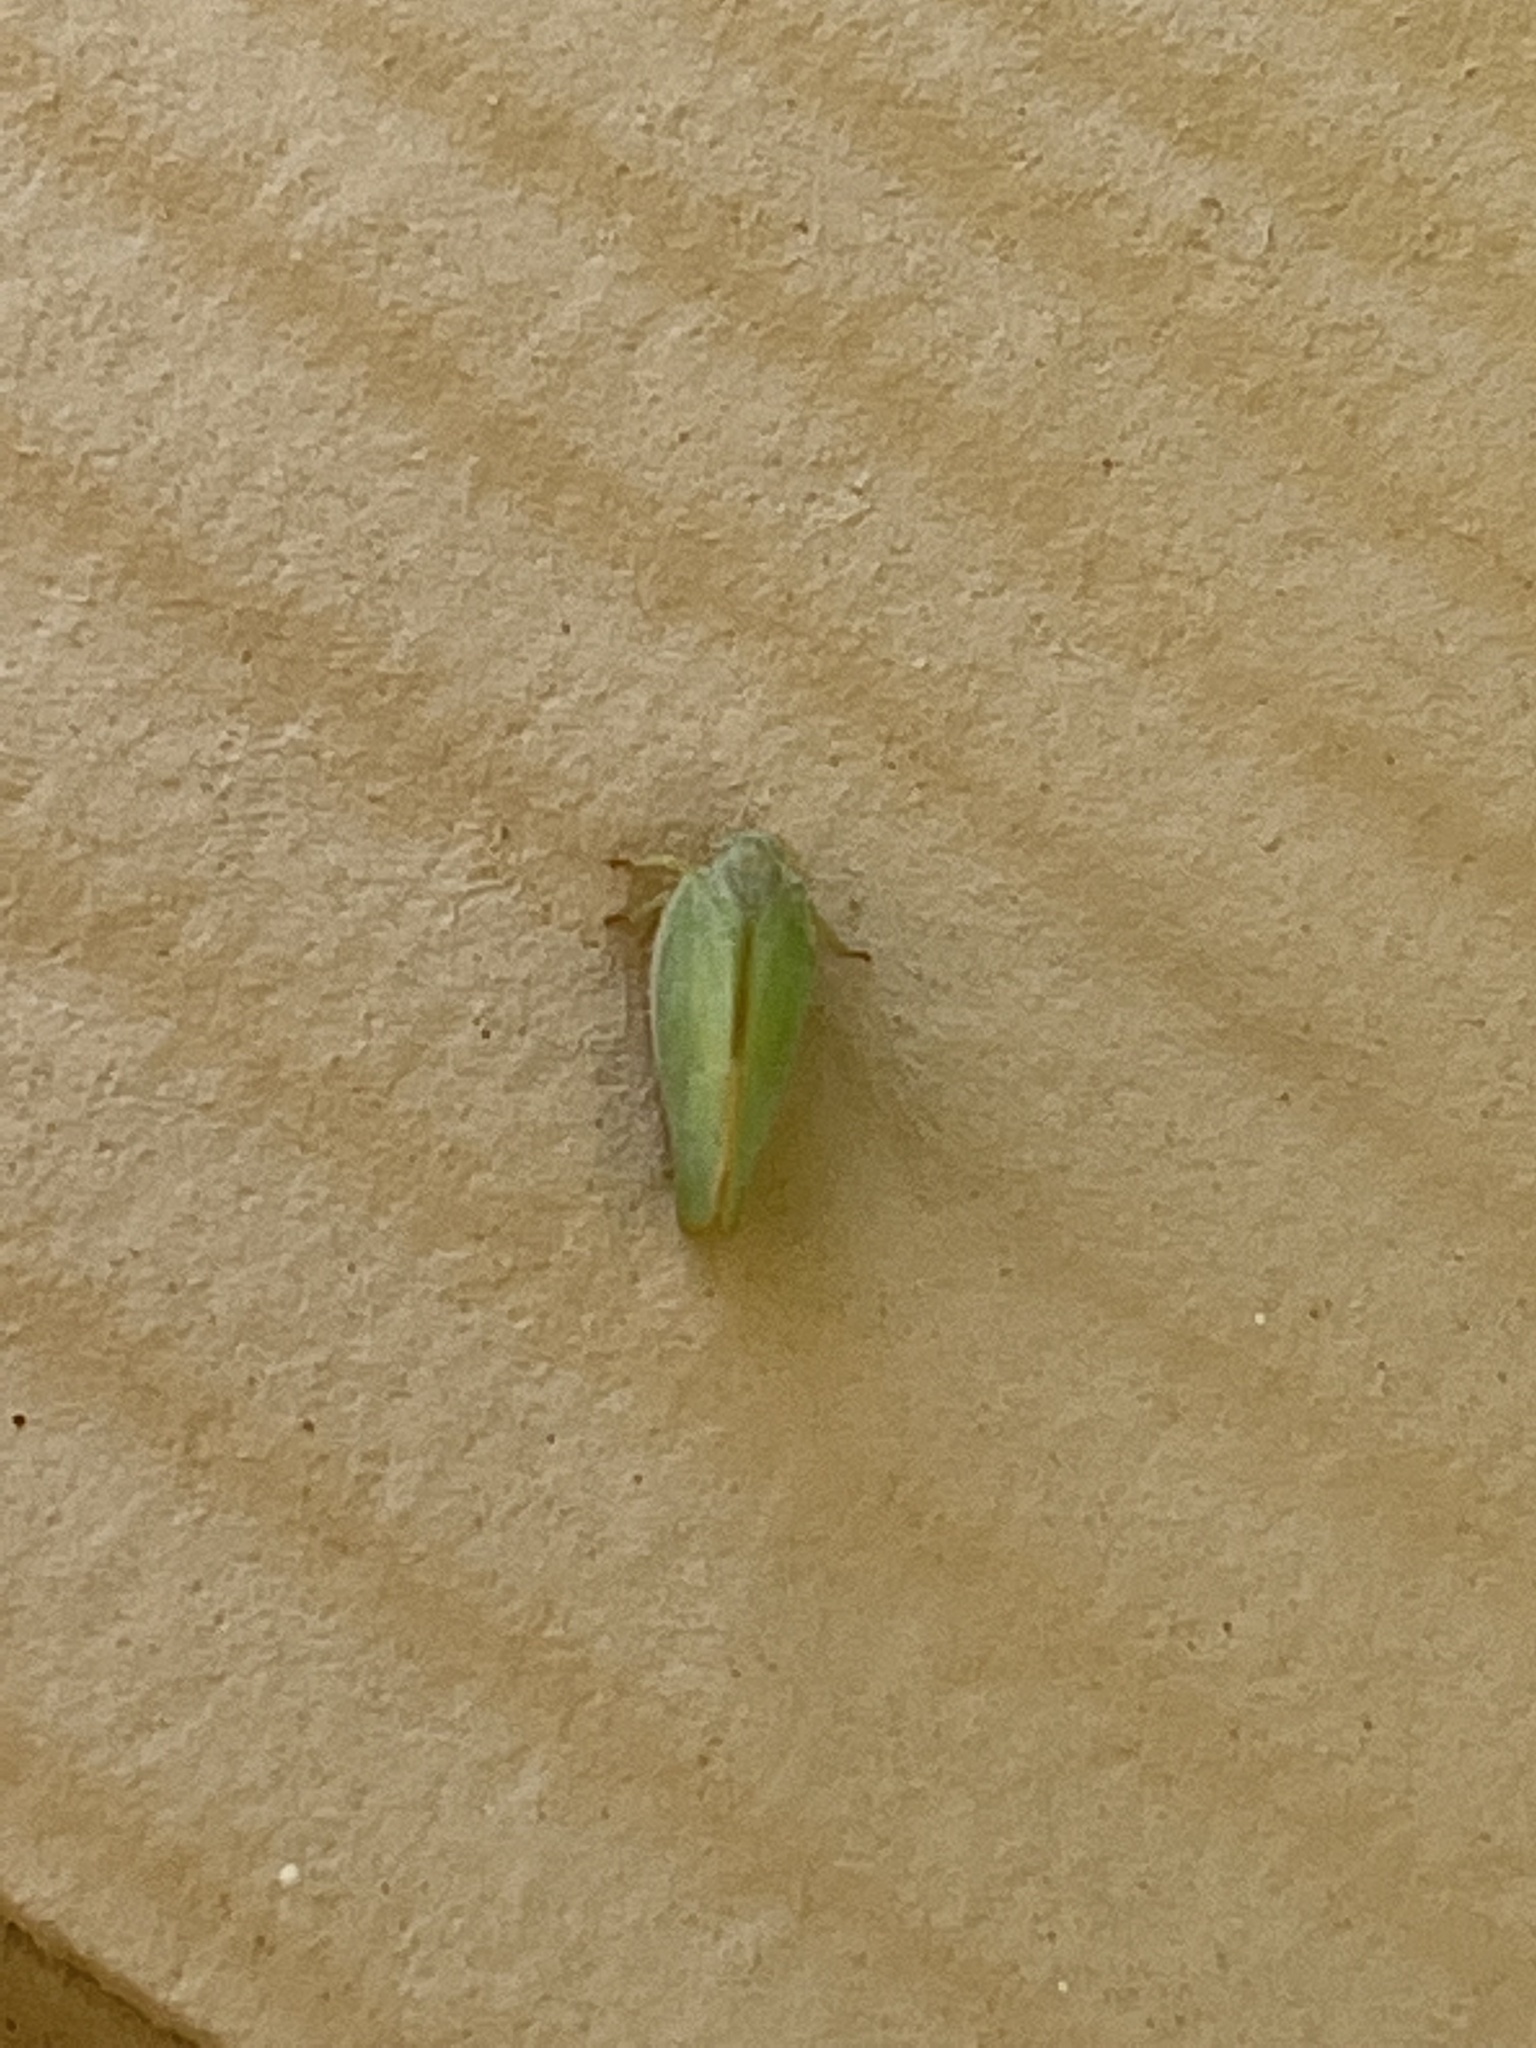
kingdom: Animalia
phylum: Arthropoda
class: Insecta
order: Hemiptera
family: Flatidae
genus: Ormenoides
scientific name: Ormenoides venusta
